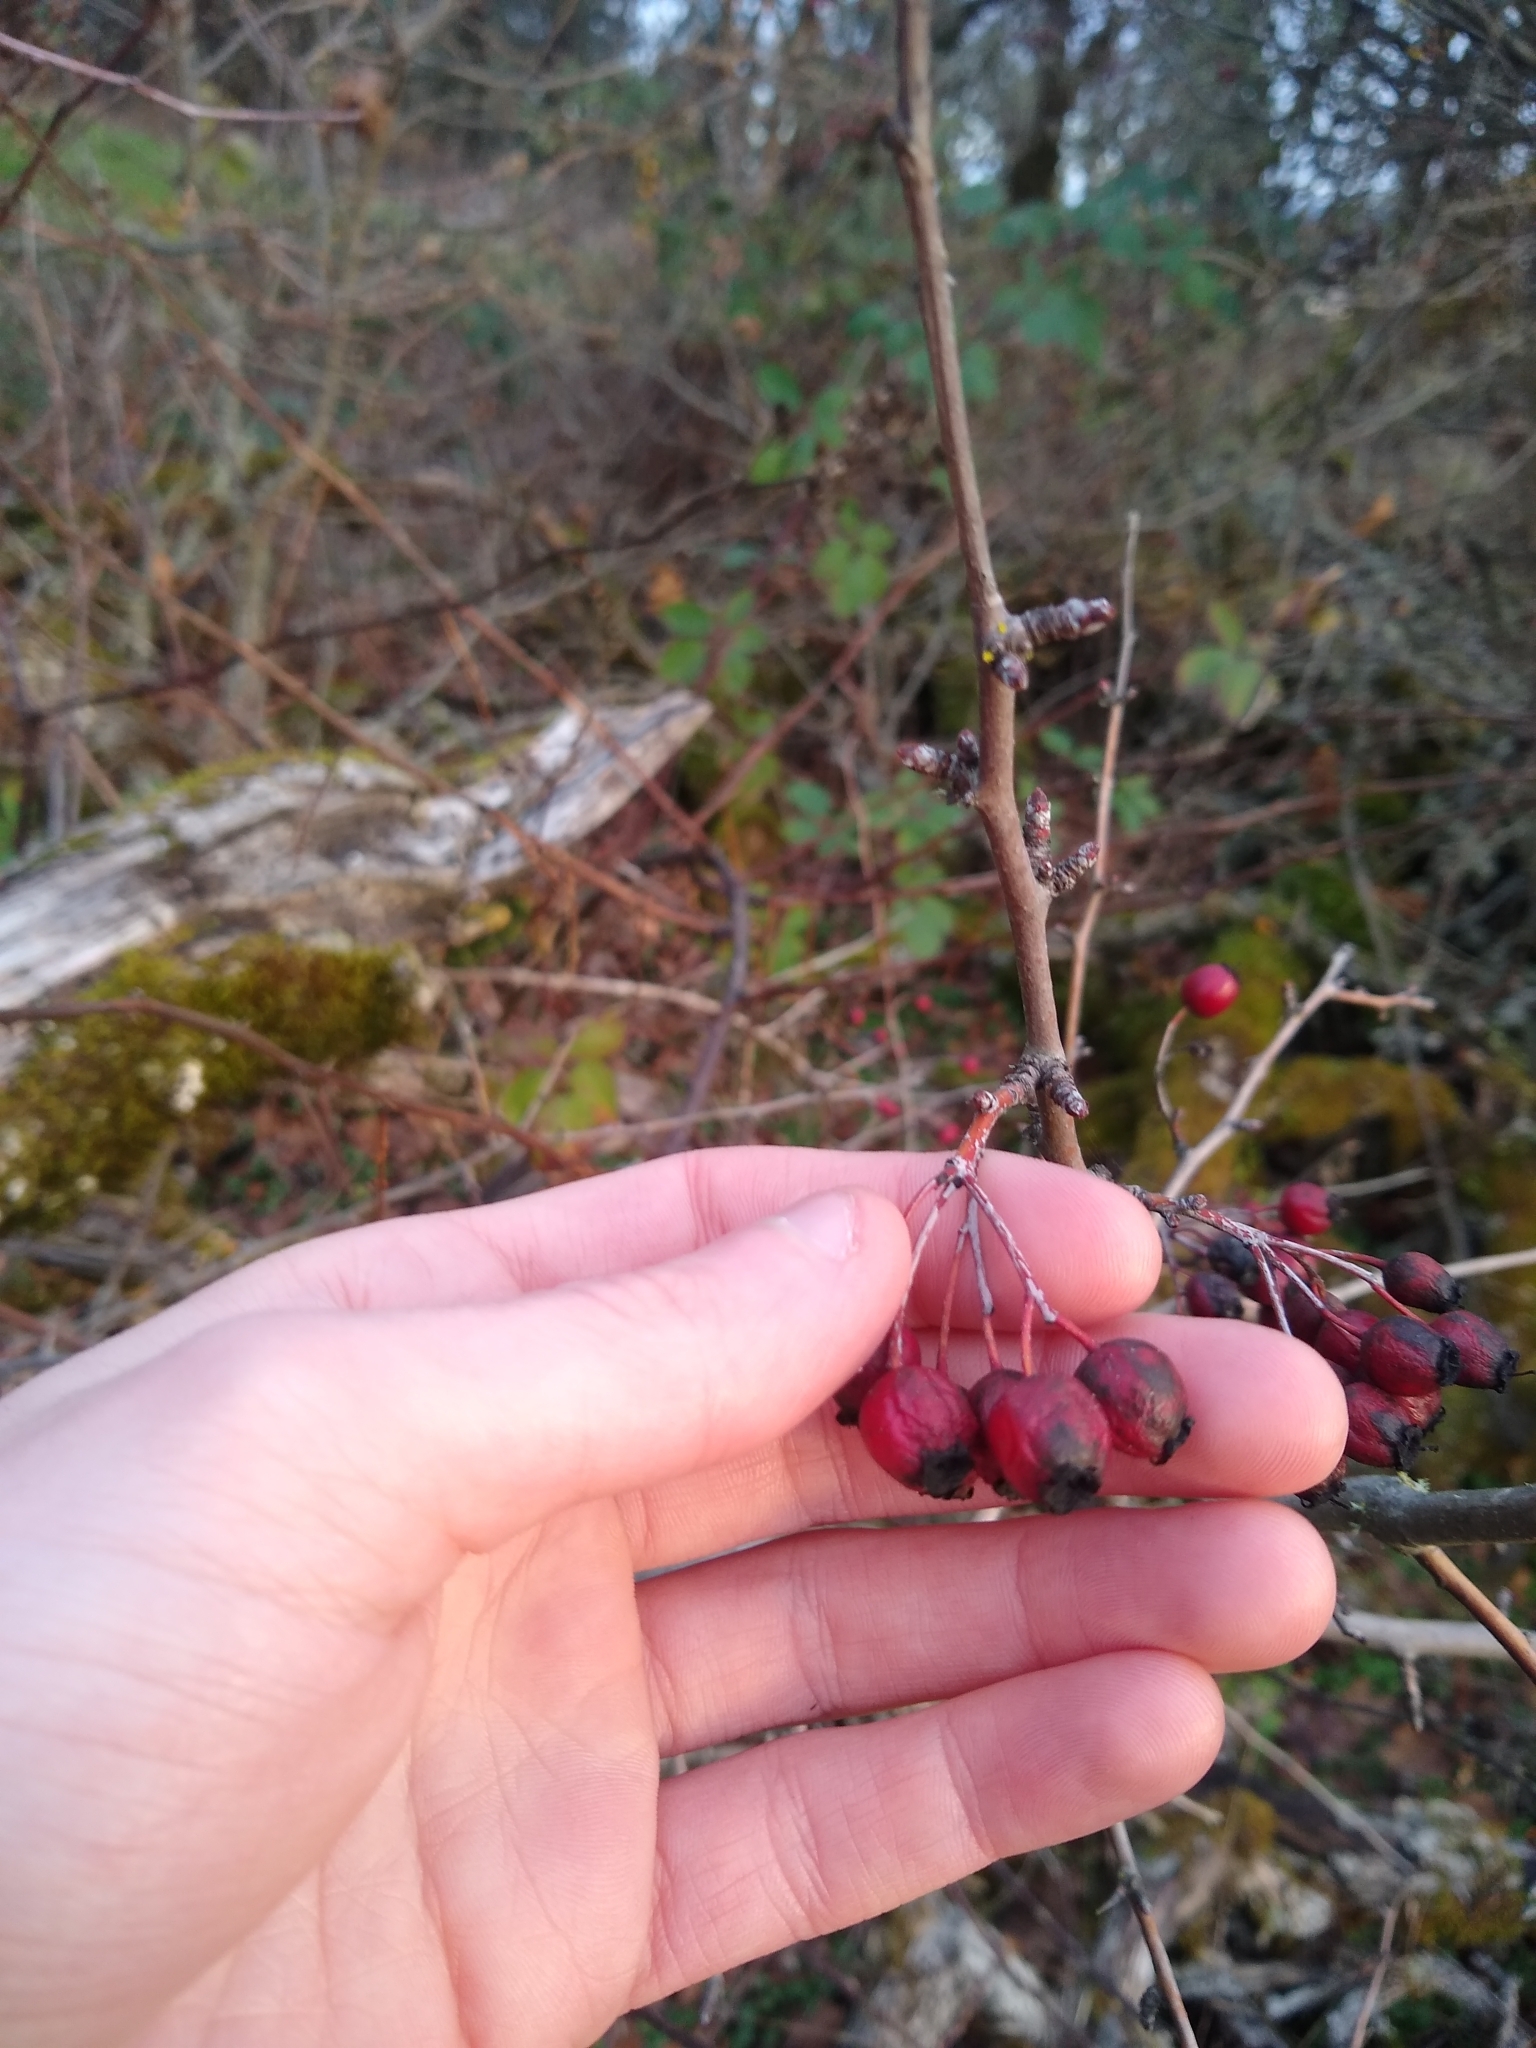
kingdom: Plantae
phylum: Tracheophyta
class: Magnoliopsida
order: Rosales
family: Rosaceae
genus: Crataegus
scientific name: Crataegus monogyna
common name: Hawthorn
